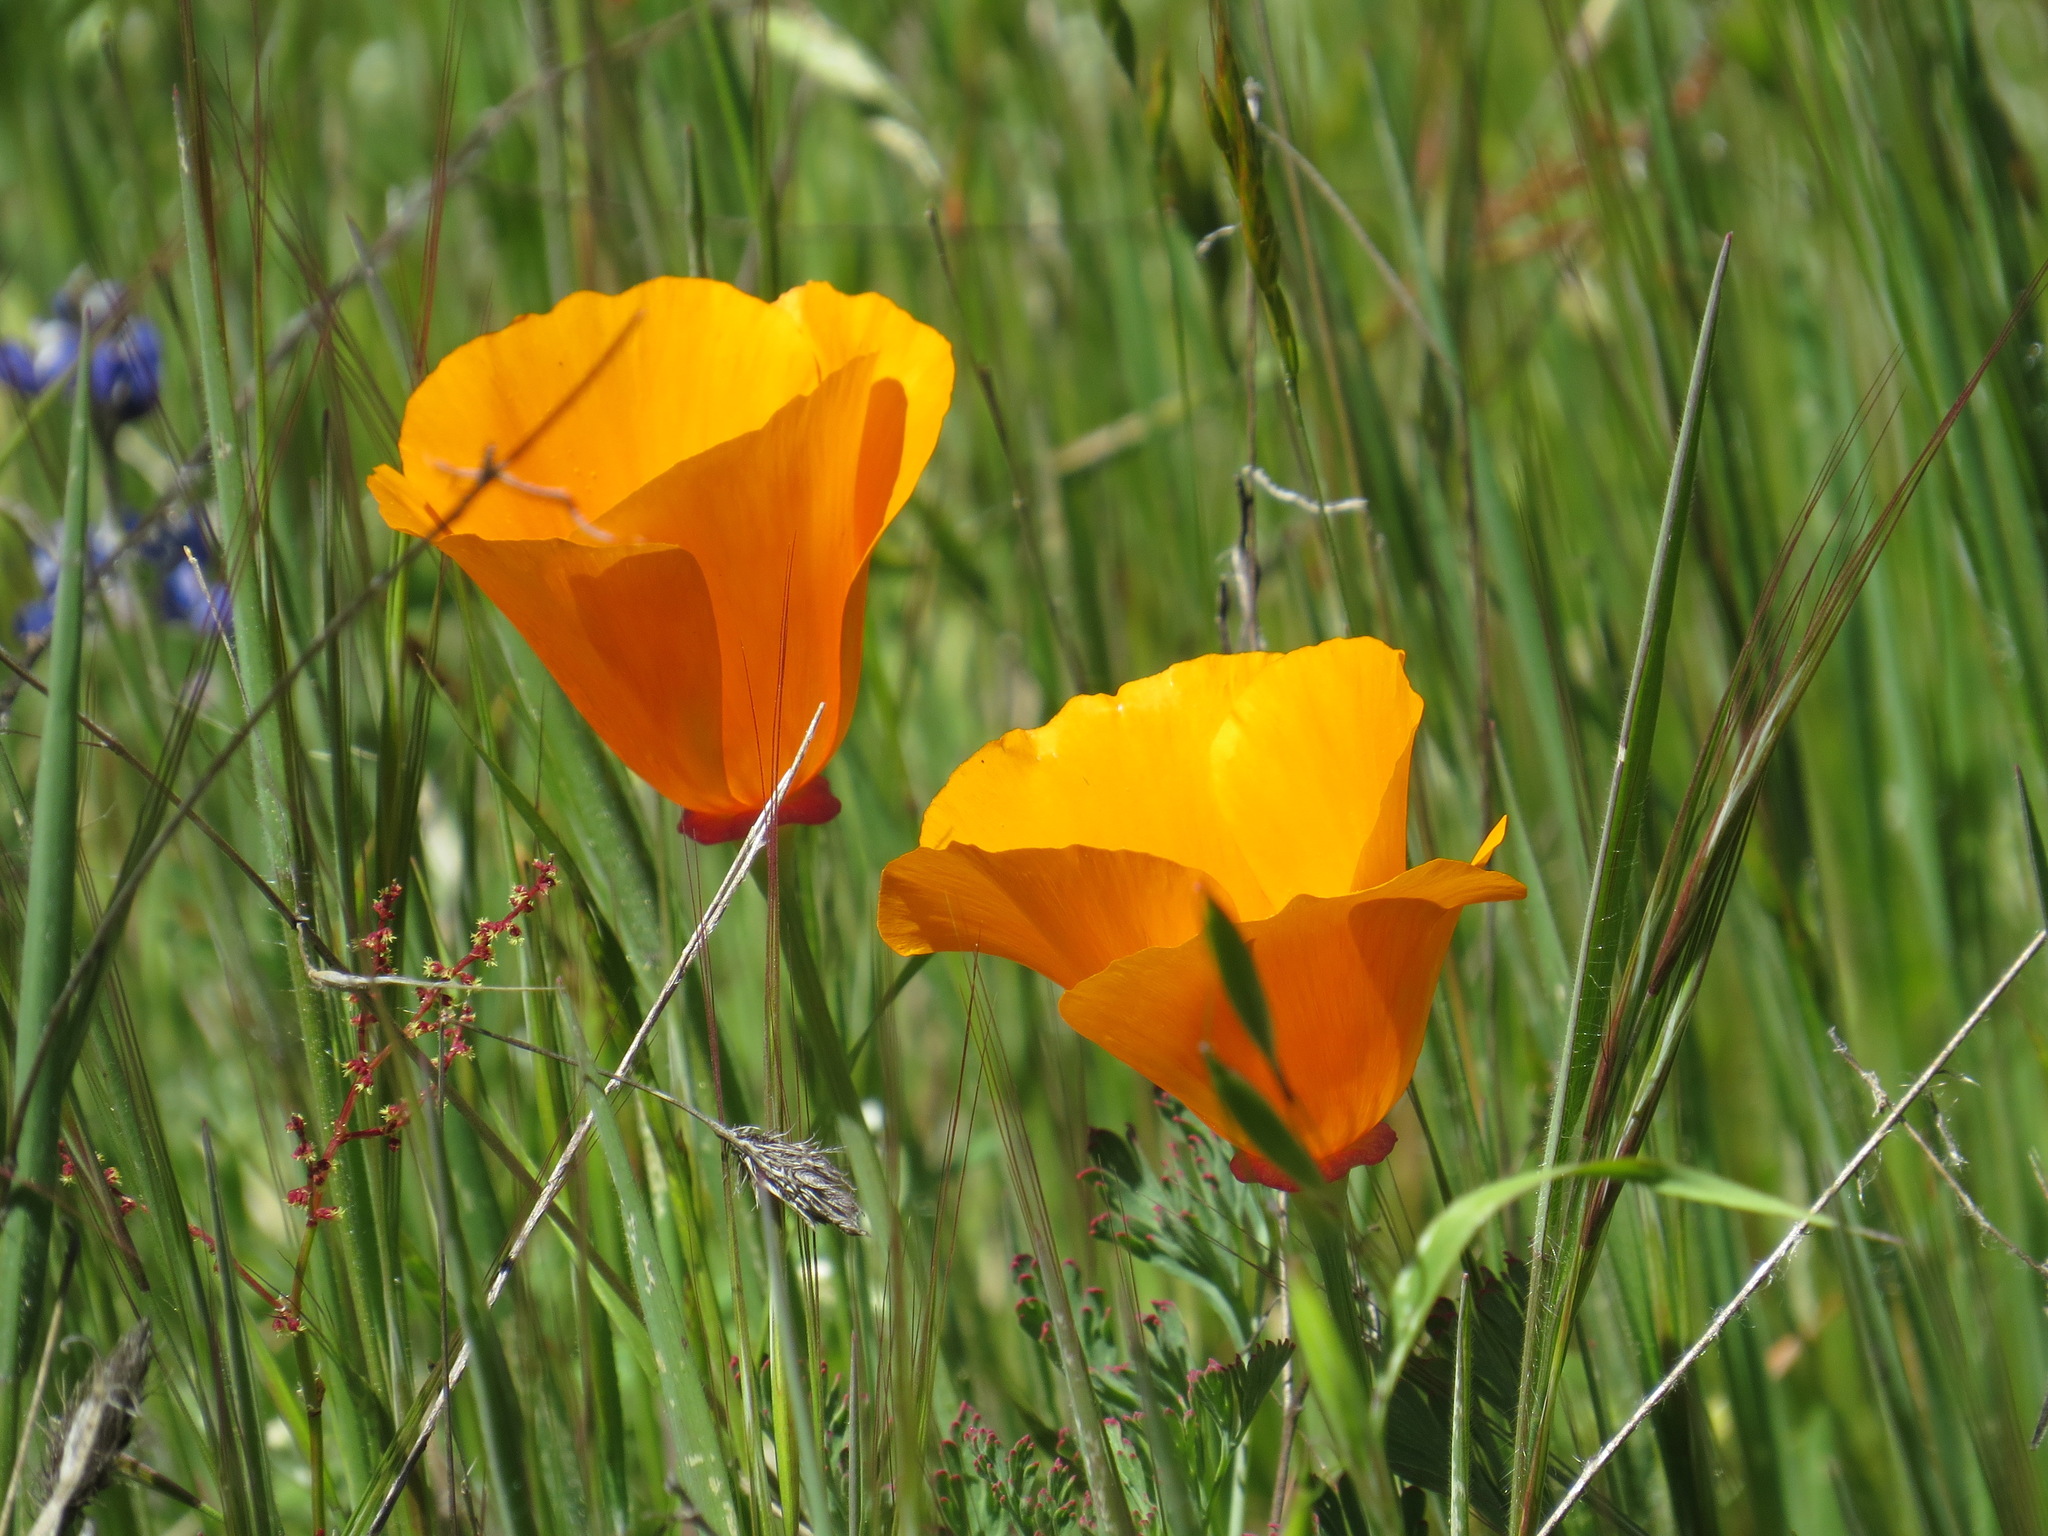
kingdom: Plantae
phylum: Tracheophyta
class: Magnoliopsida
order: Ranunculales
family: Papaveraceae
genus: Eschscholzia
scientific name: Eschscholzia californica
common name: California poppy
